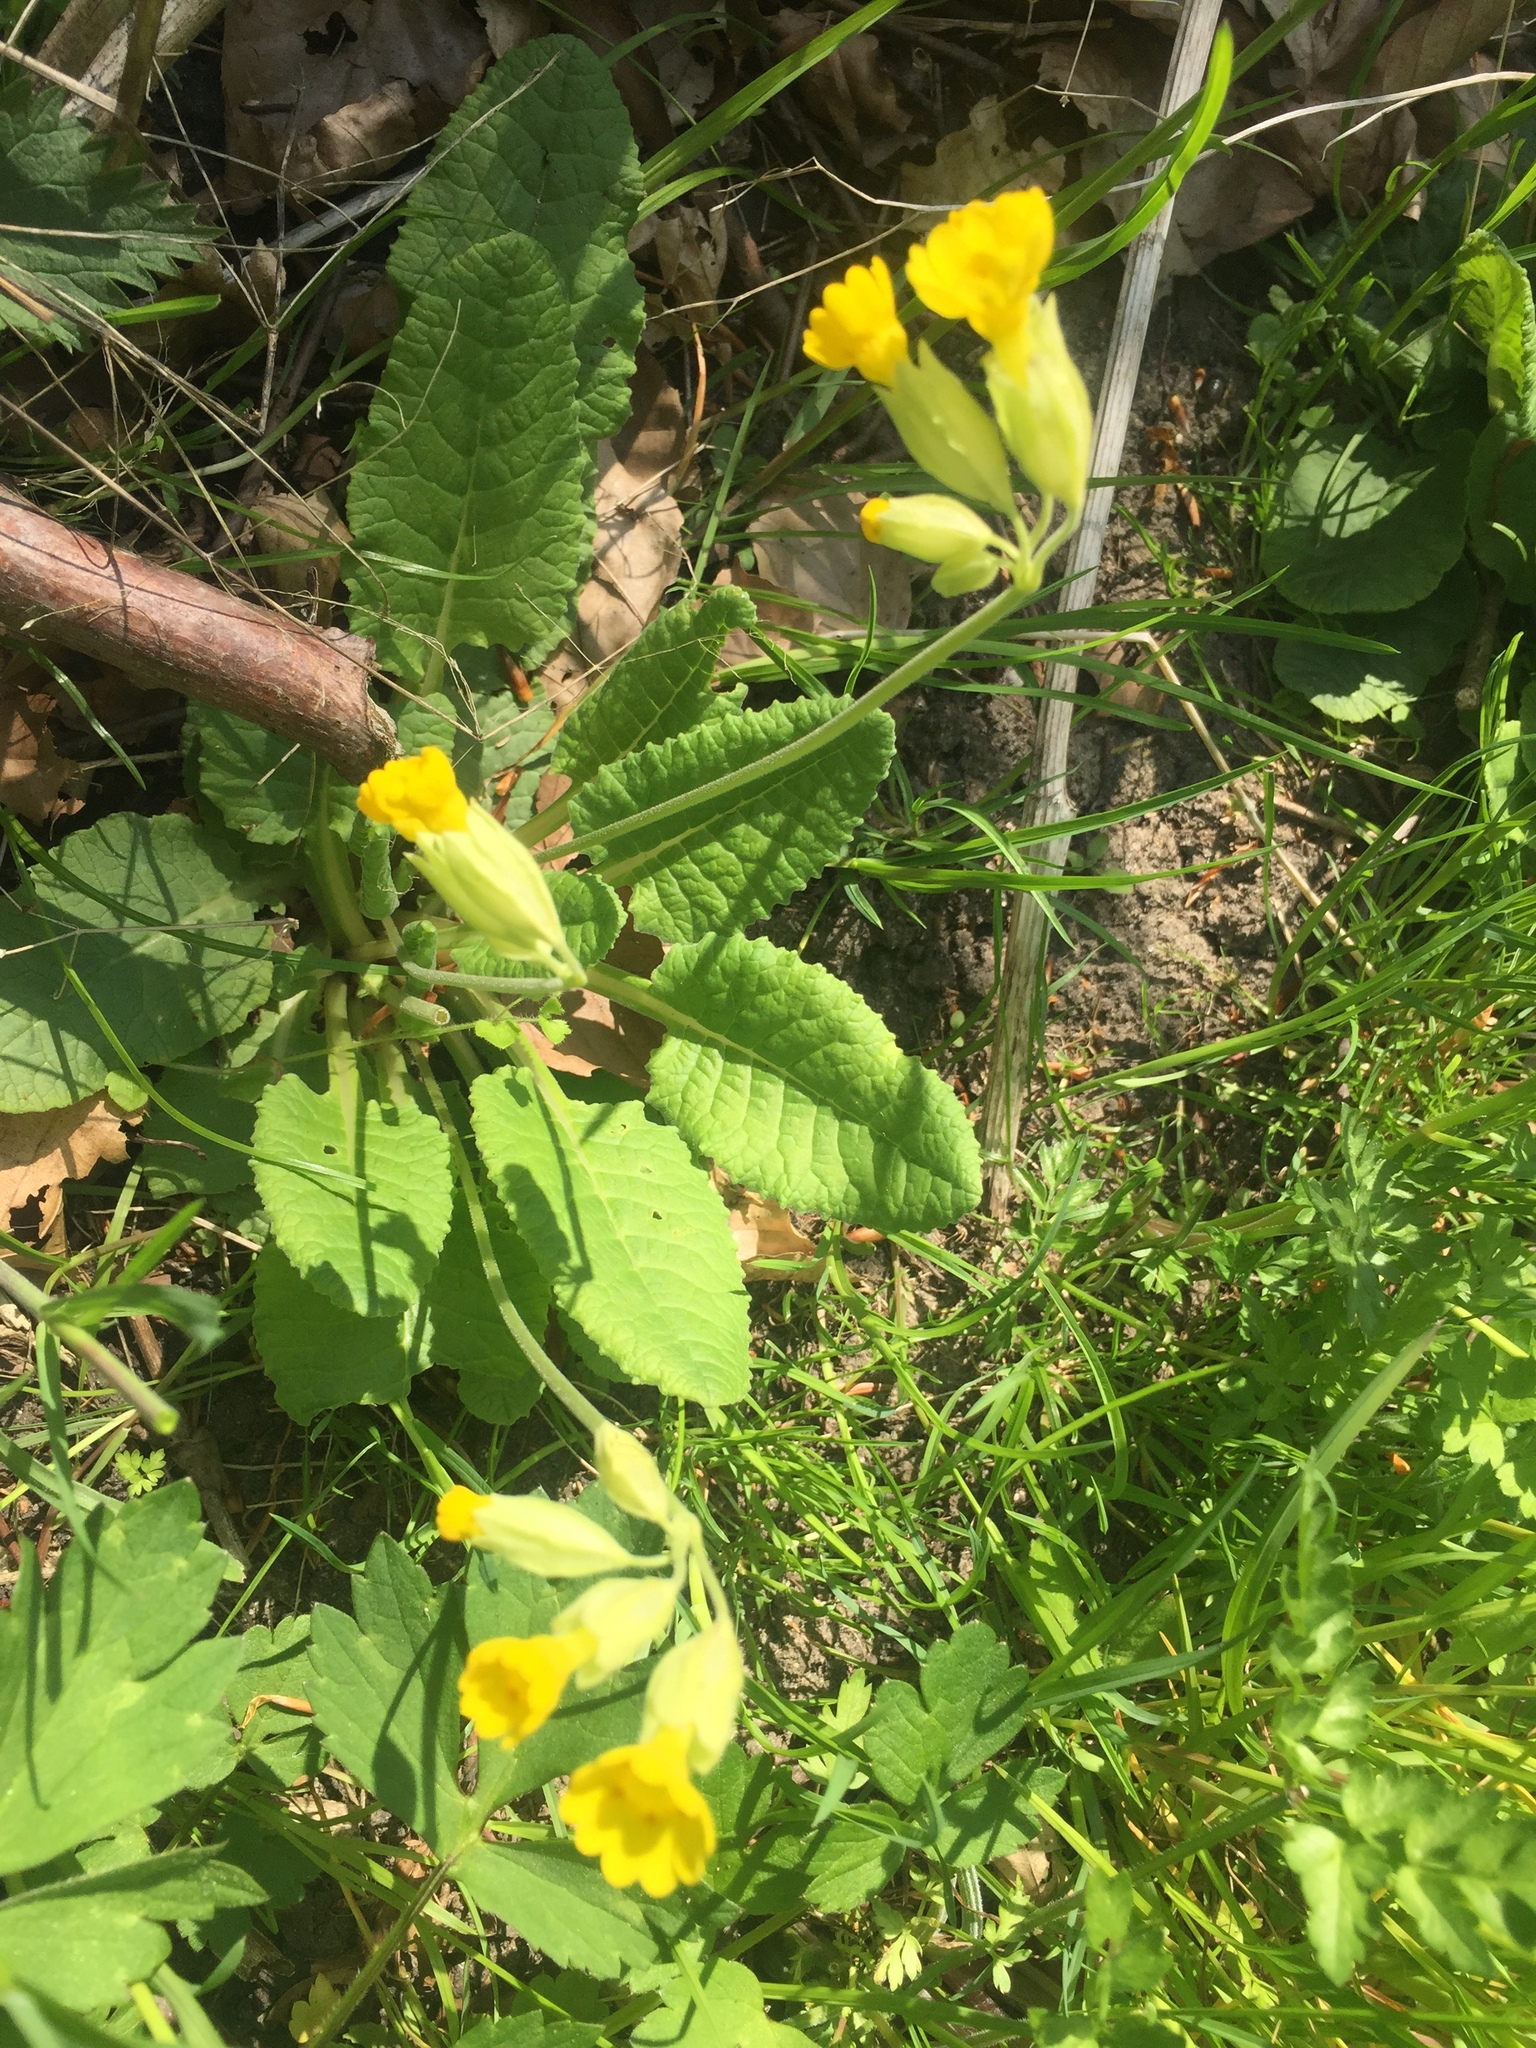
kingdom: Plantae
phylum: Tracheophyta
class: Magnoliopsida
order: Ericales
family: Primulaceae
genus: Primula
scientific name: Primula veris
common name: Cowslip
